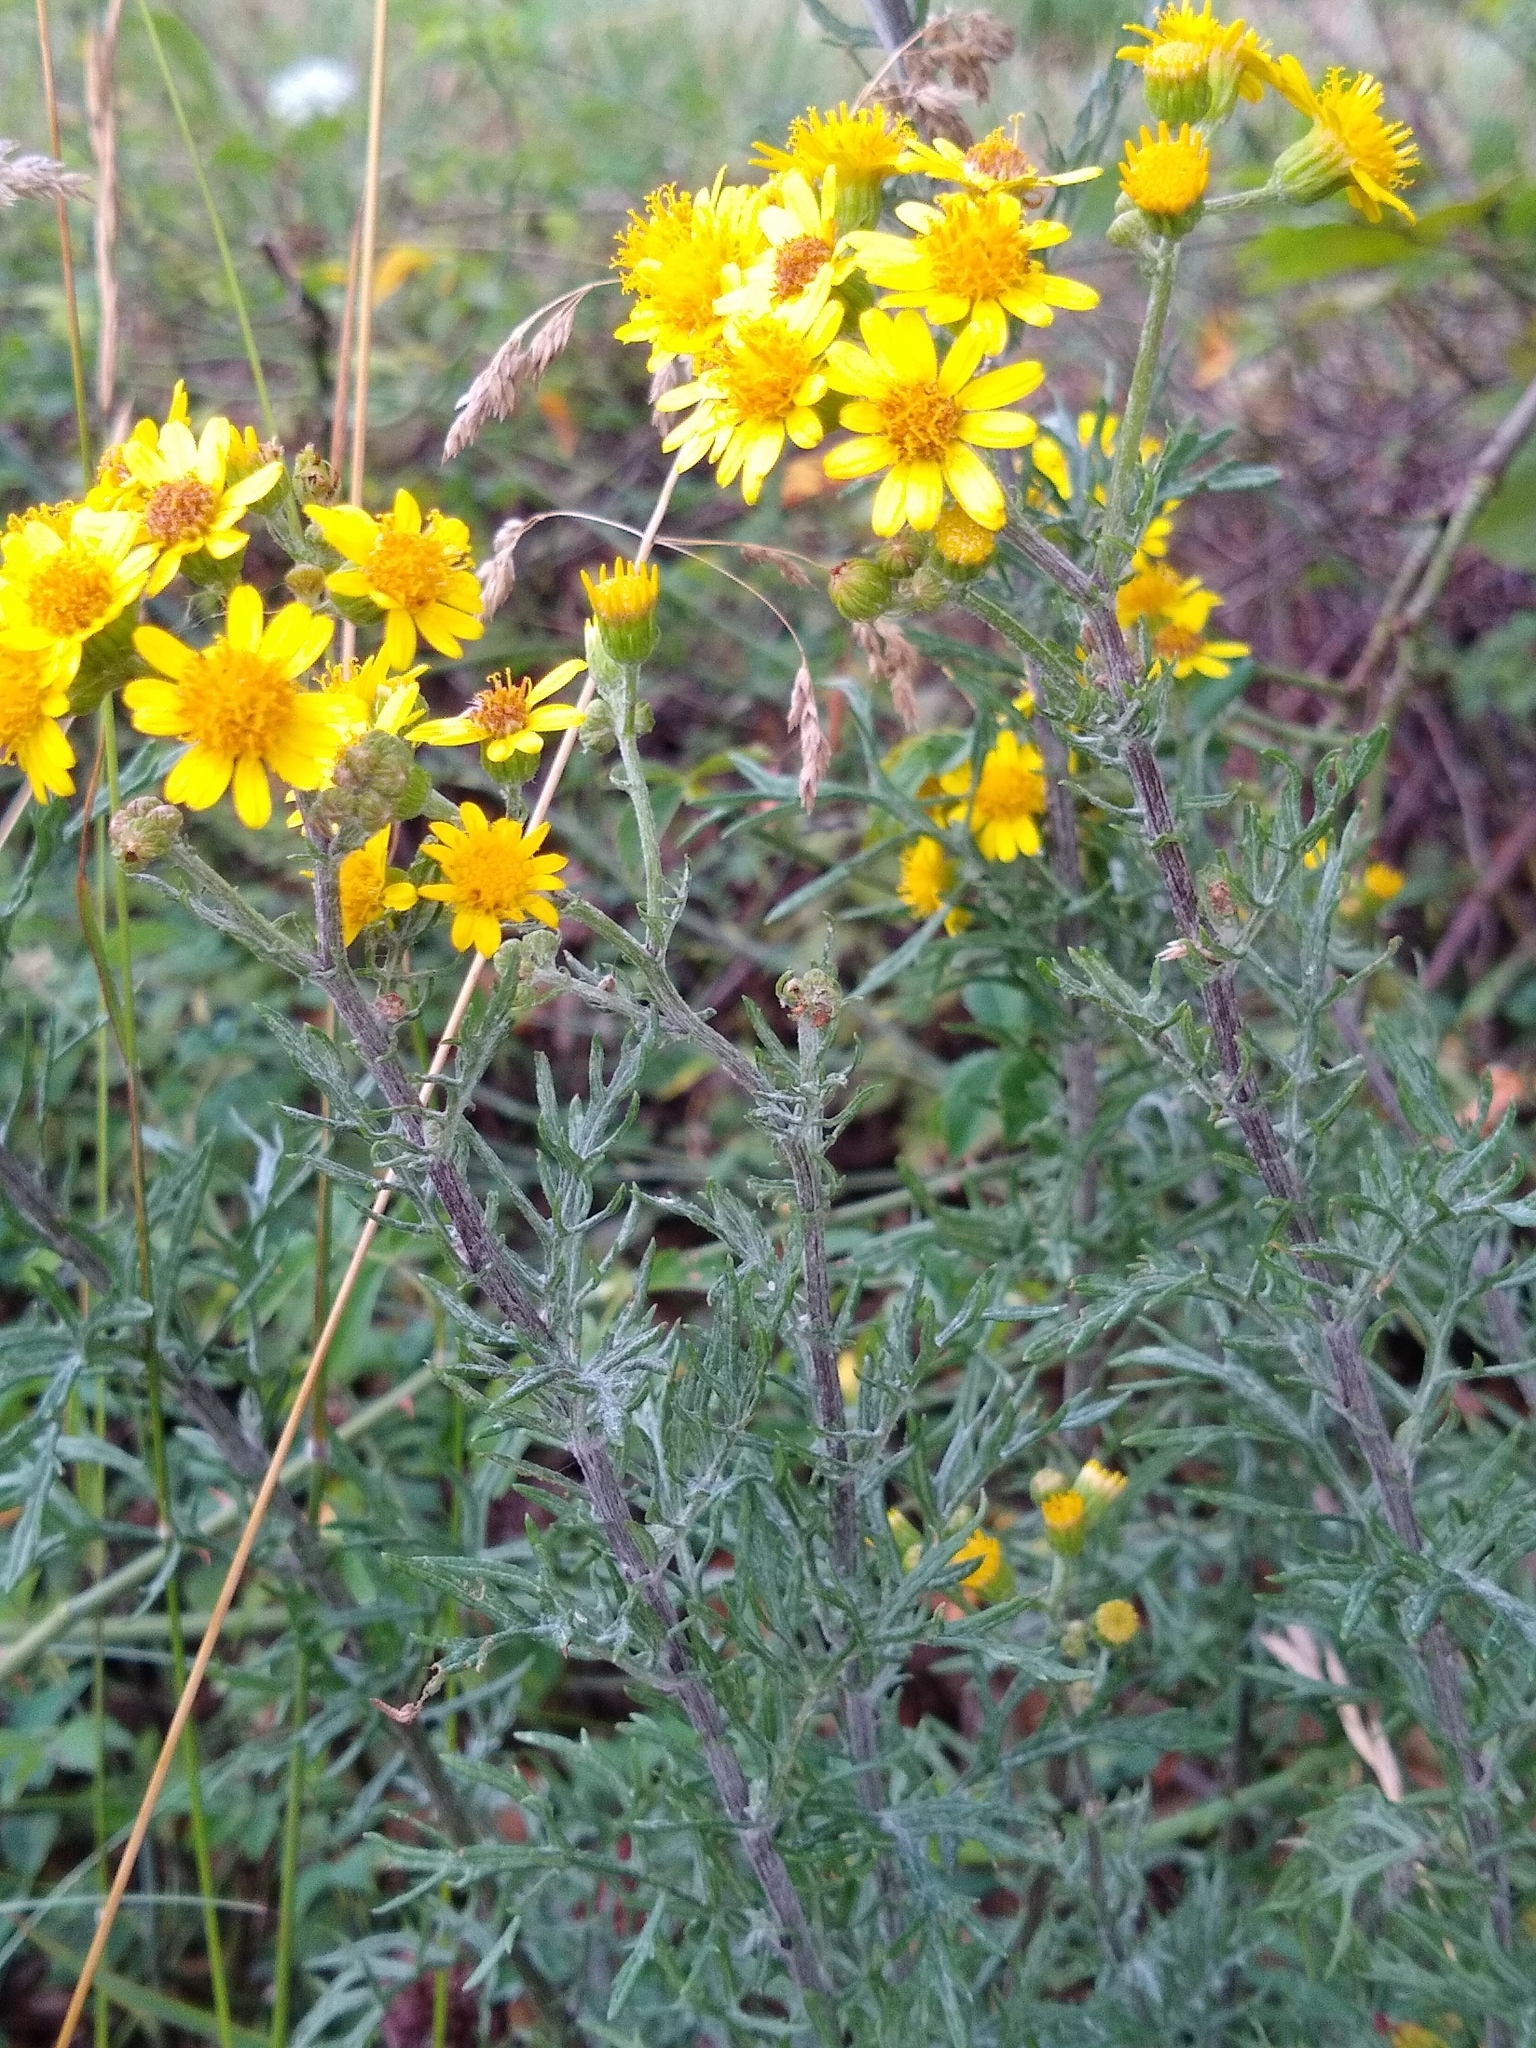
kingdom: Plantae
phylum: Tracheophyta
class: Magnoliopsida
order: Asterales
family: Asteraceae
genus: Jacobaea
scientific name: Jacobaea erucifolia
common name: Hoary ragwort
